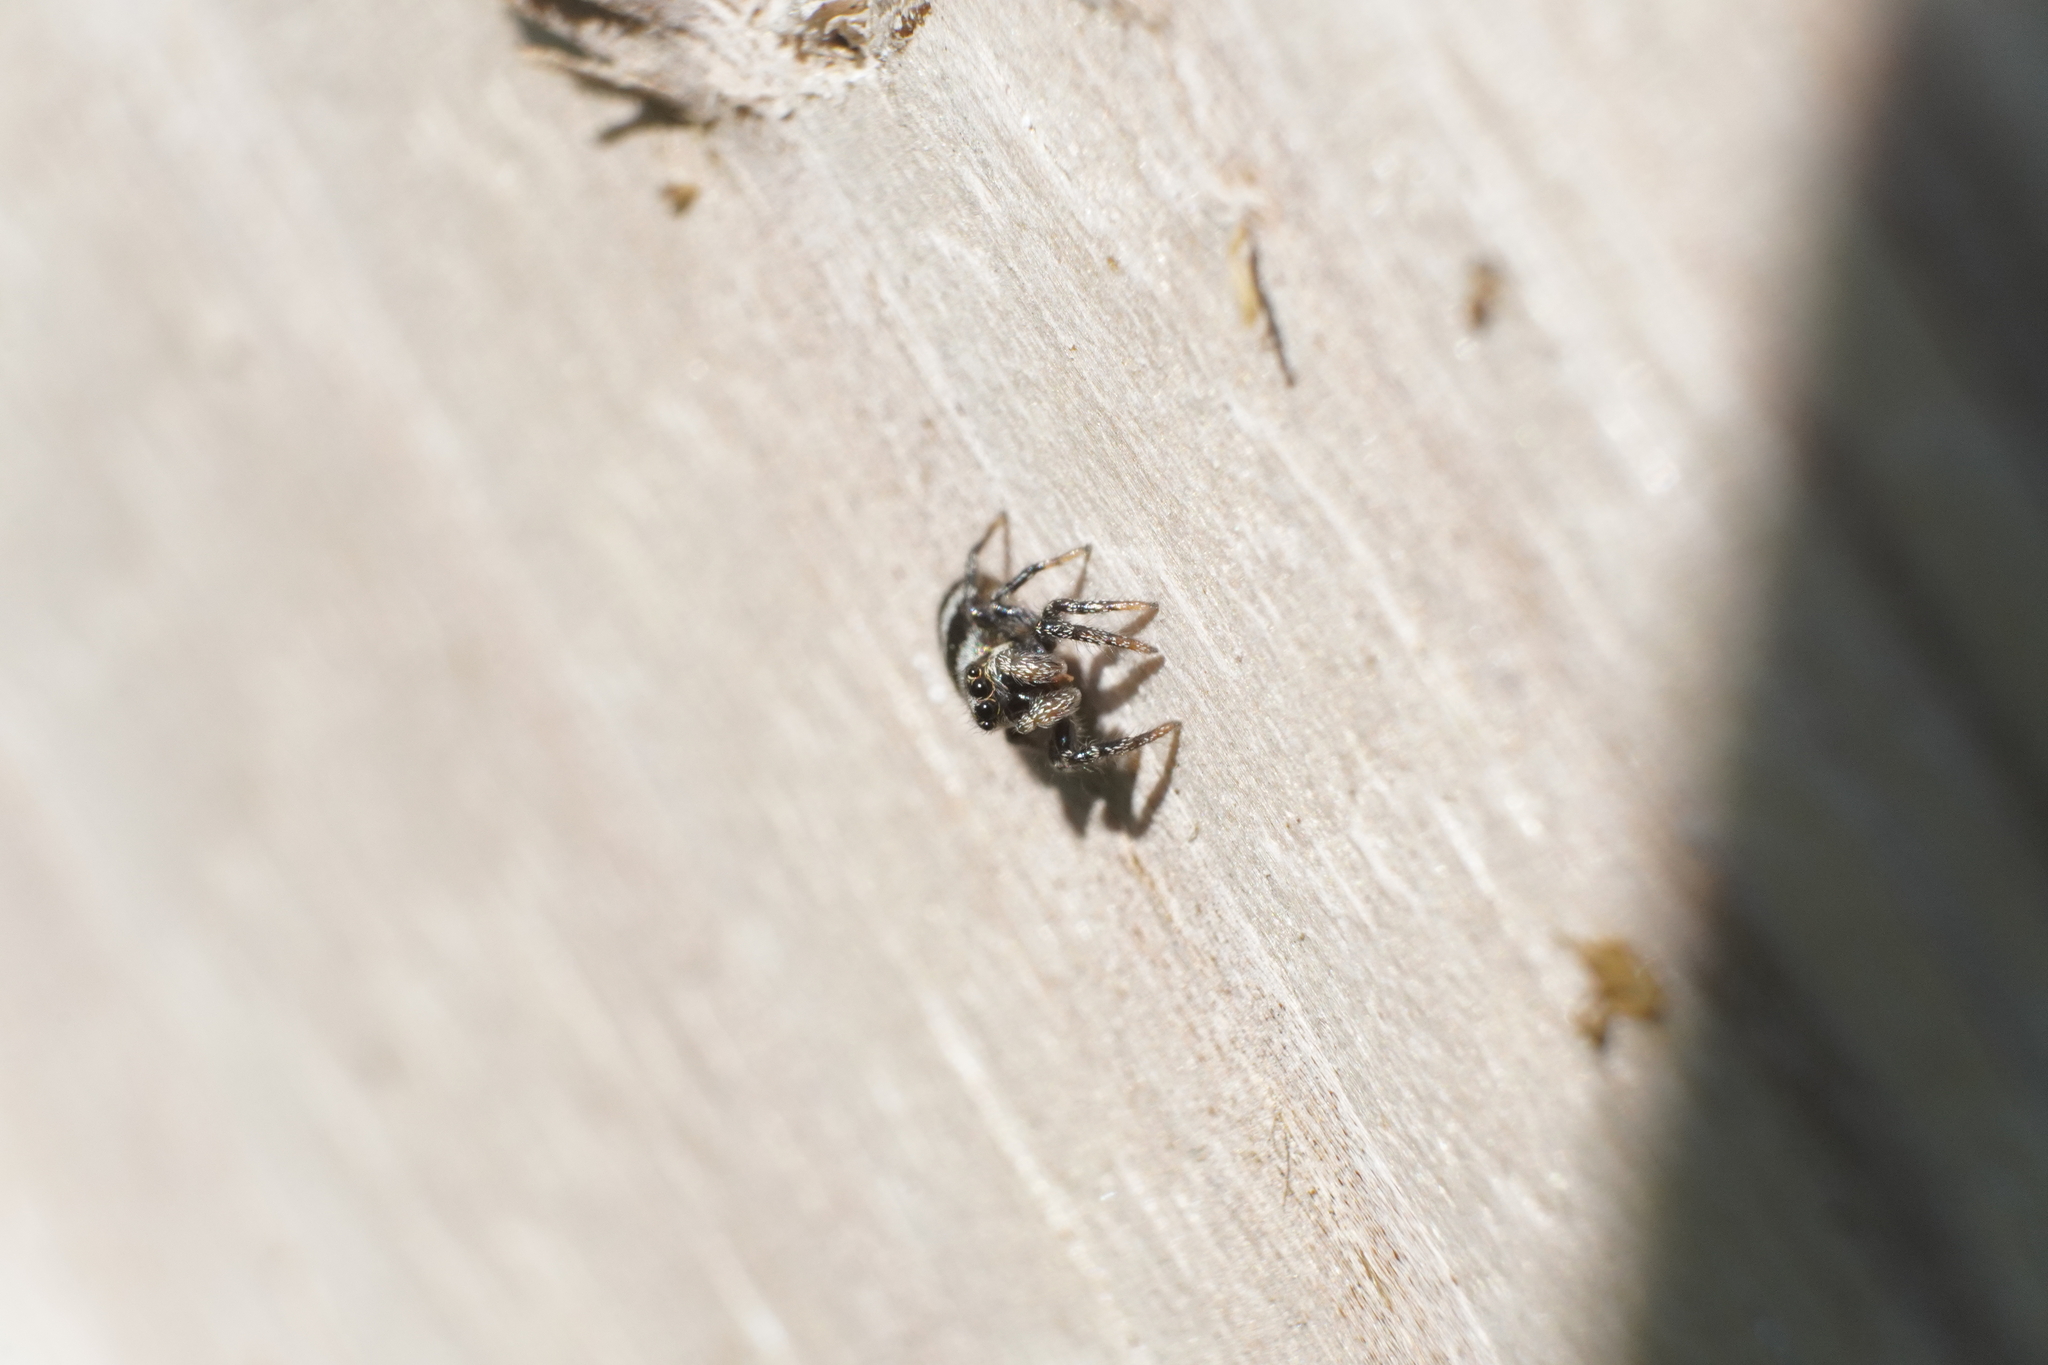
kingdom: Animalia
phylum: Arthropoda
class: Arachnida
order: Araneae
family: Salticidae
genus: Salticus
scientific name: Salticus scenicus
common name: Zebra jumper
